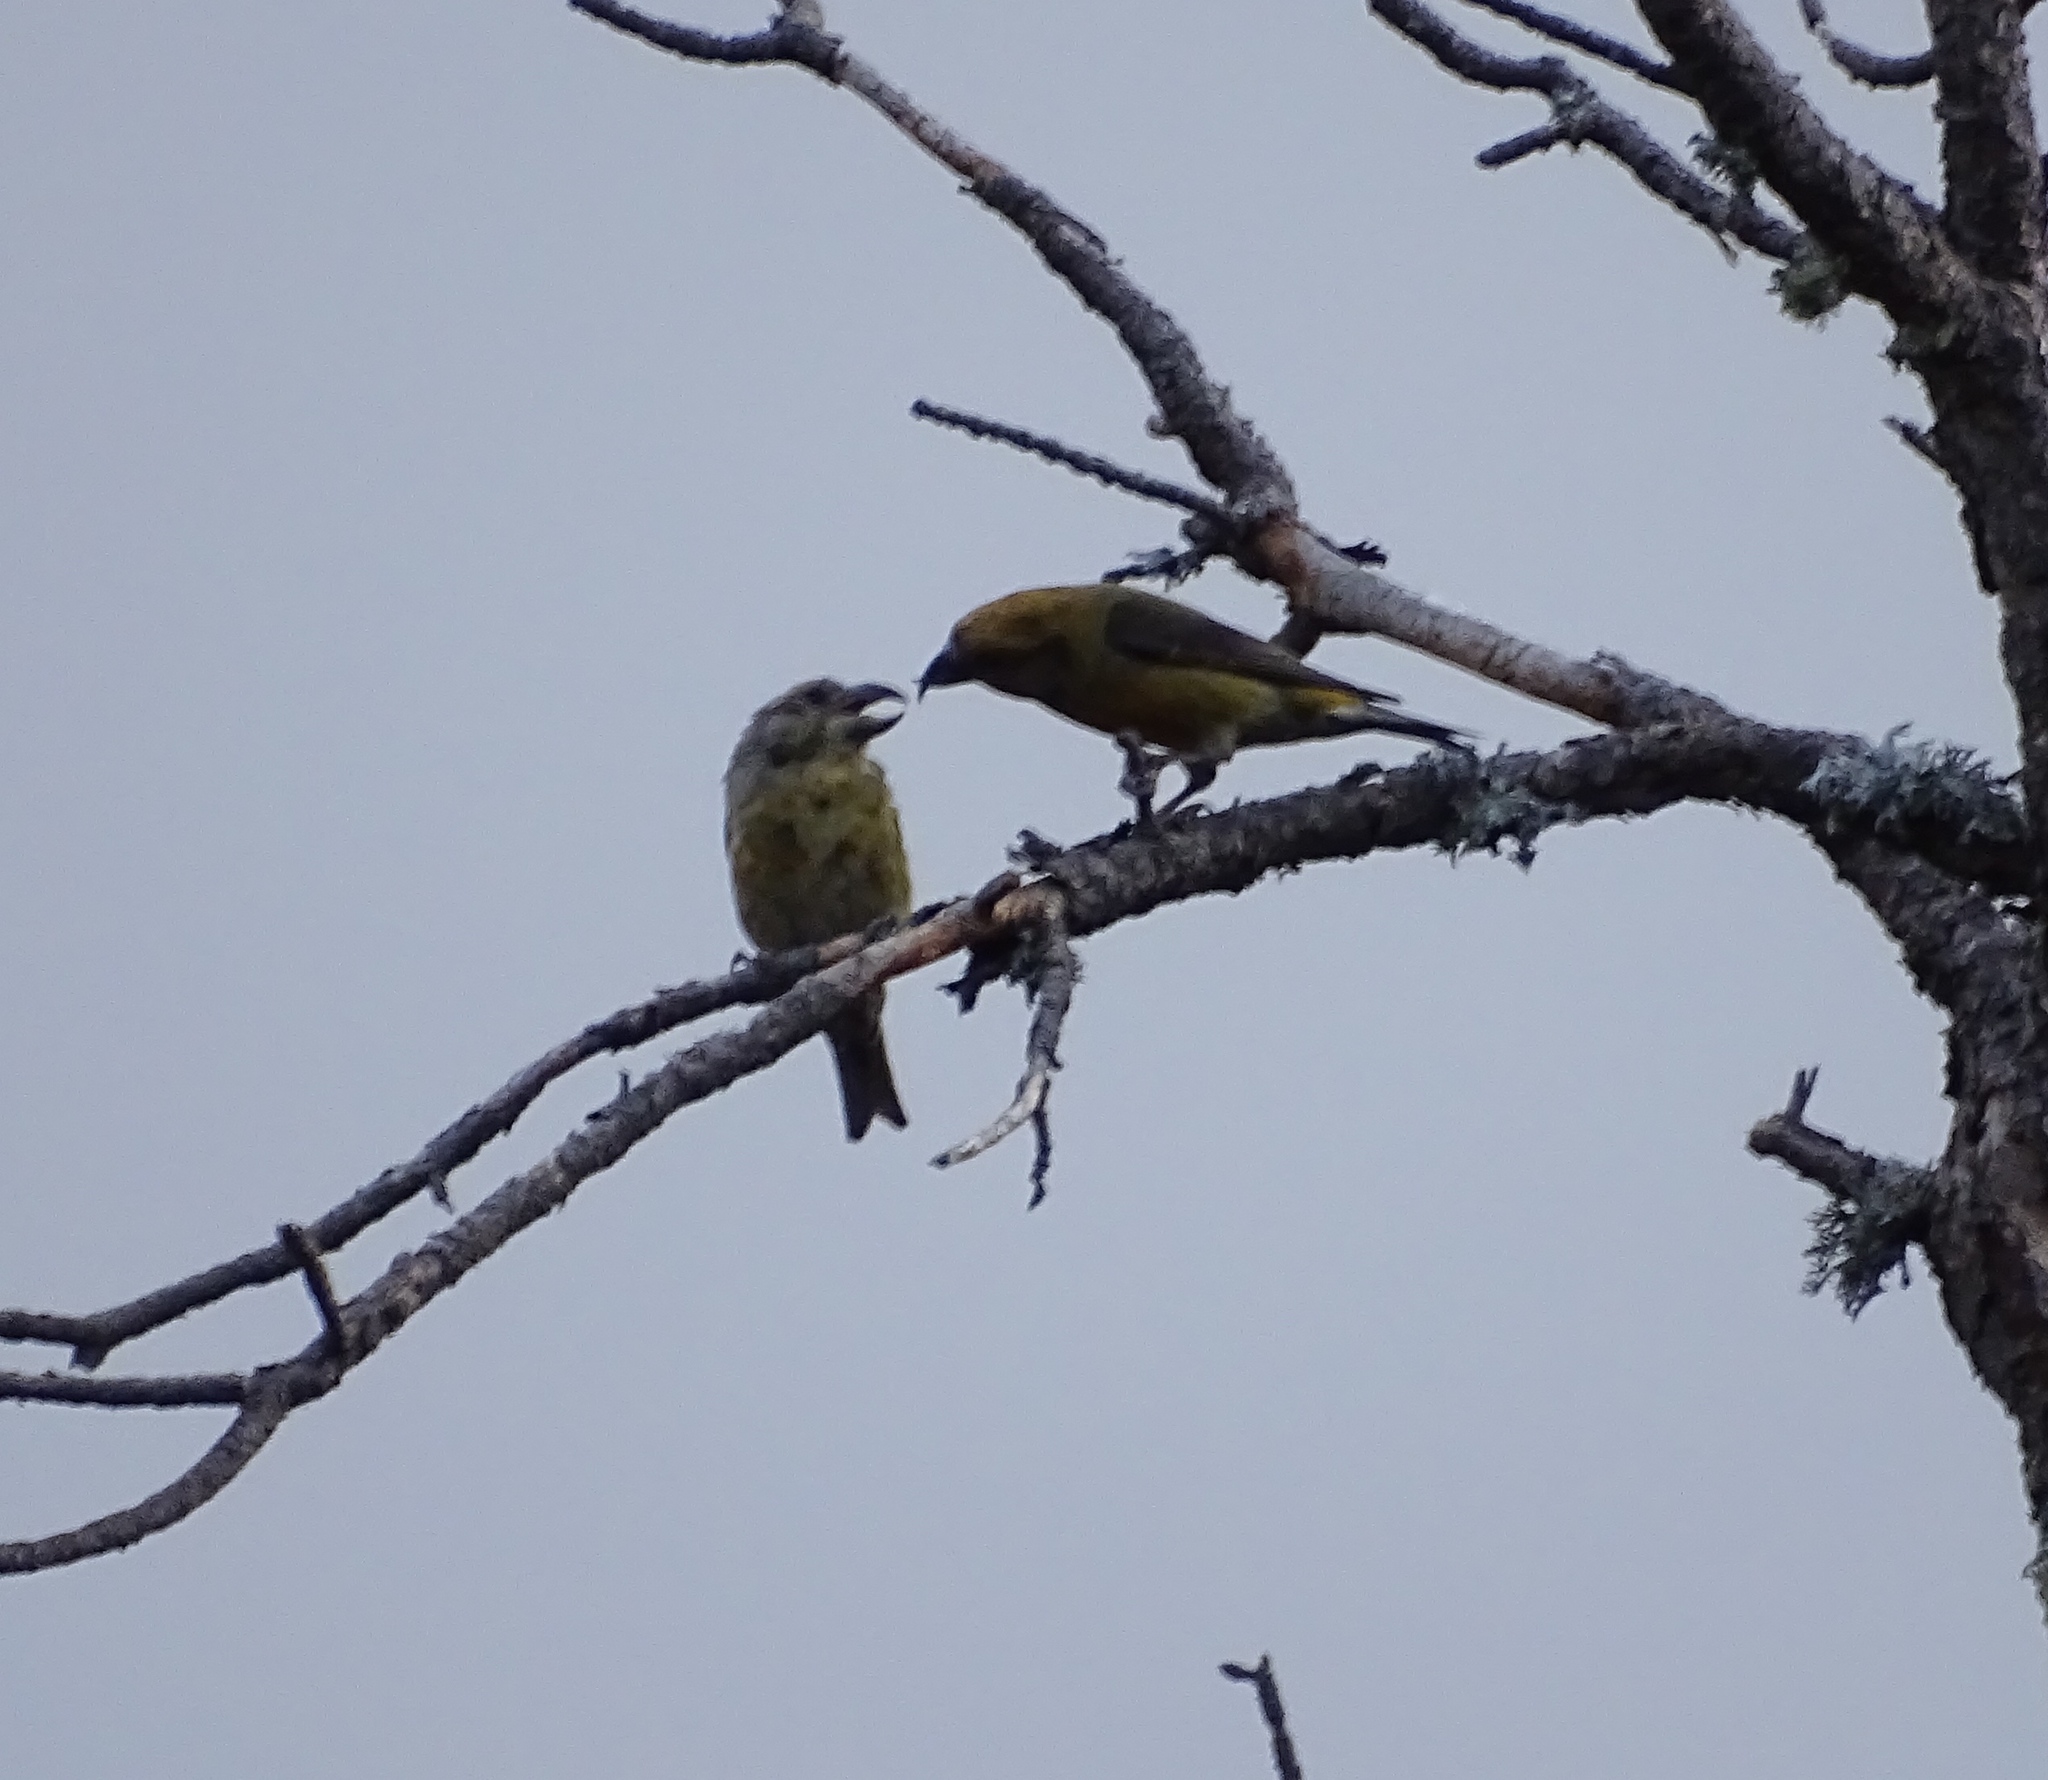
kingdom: Animalia
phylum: Chordata
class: Aves
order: Passeriformes
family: Fringillidae
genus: Loxia
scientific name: Loxia curvirostra
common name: Red crossbill
